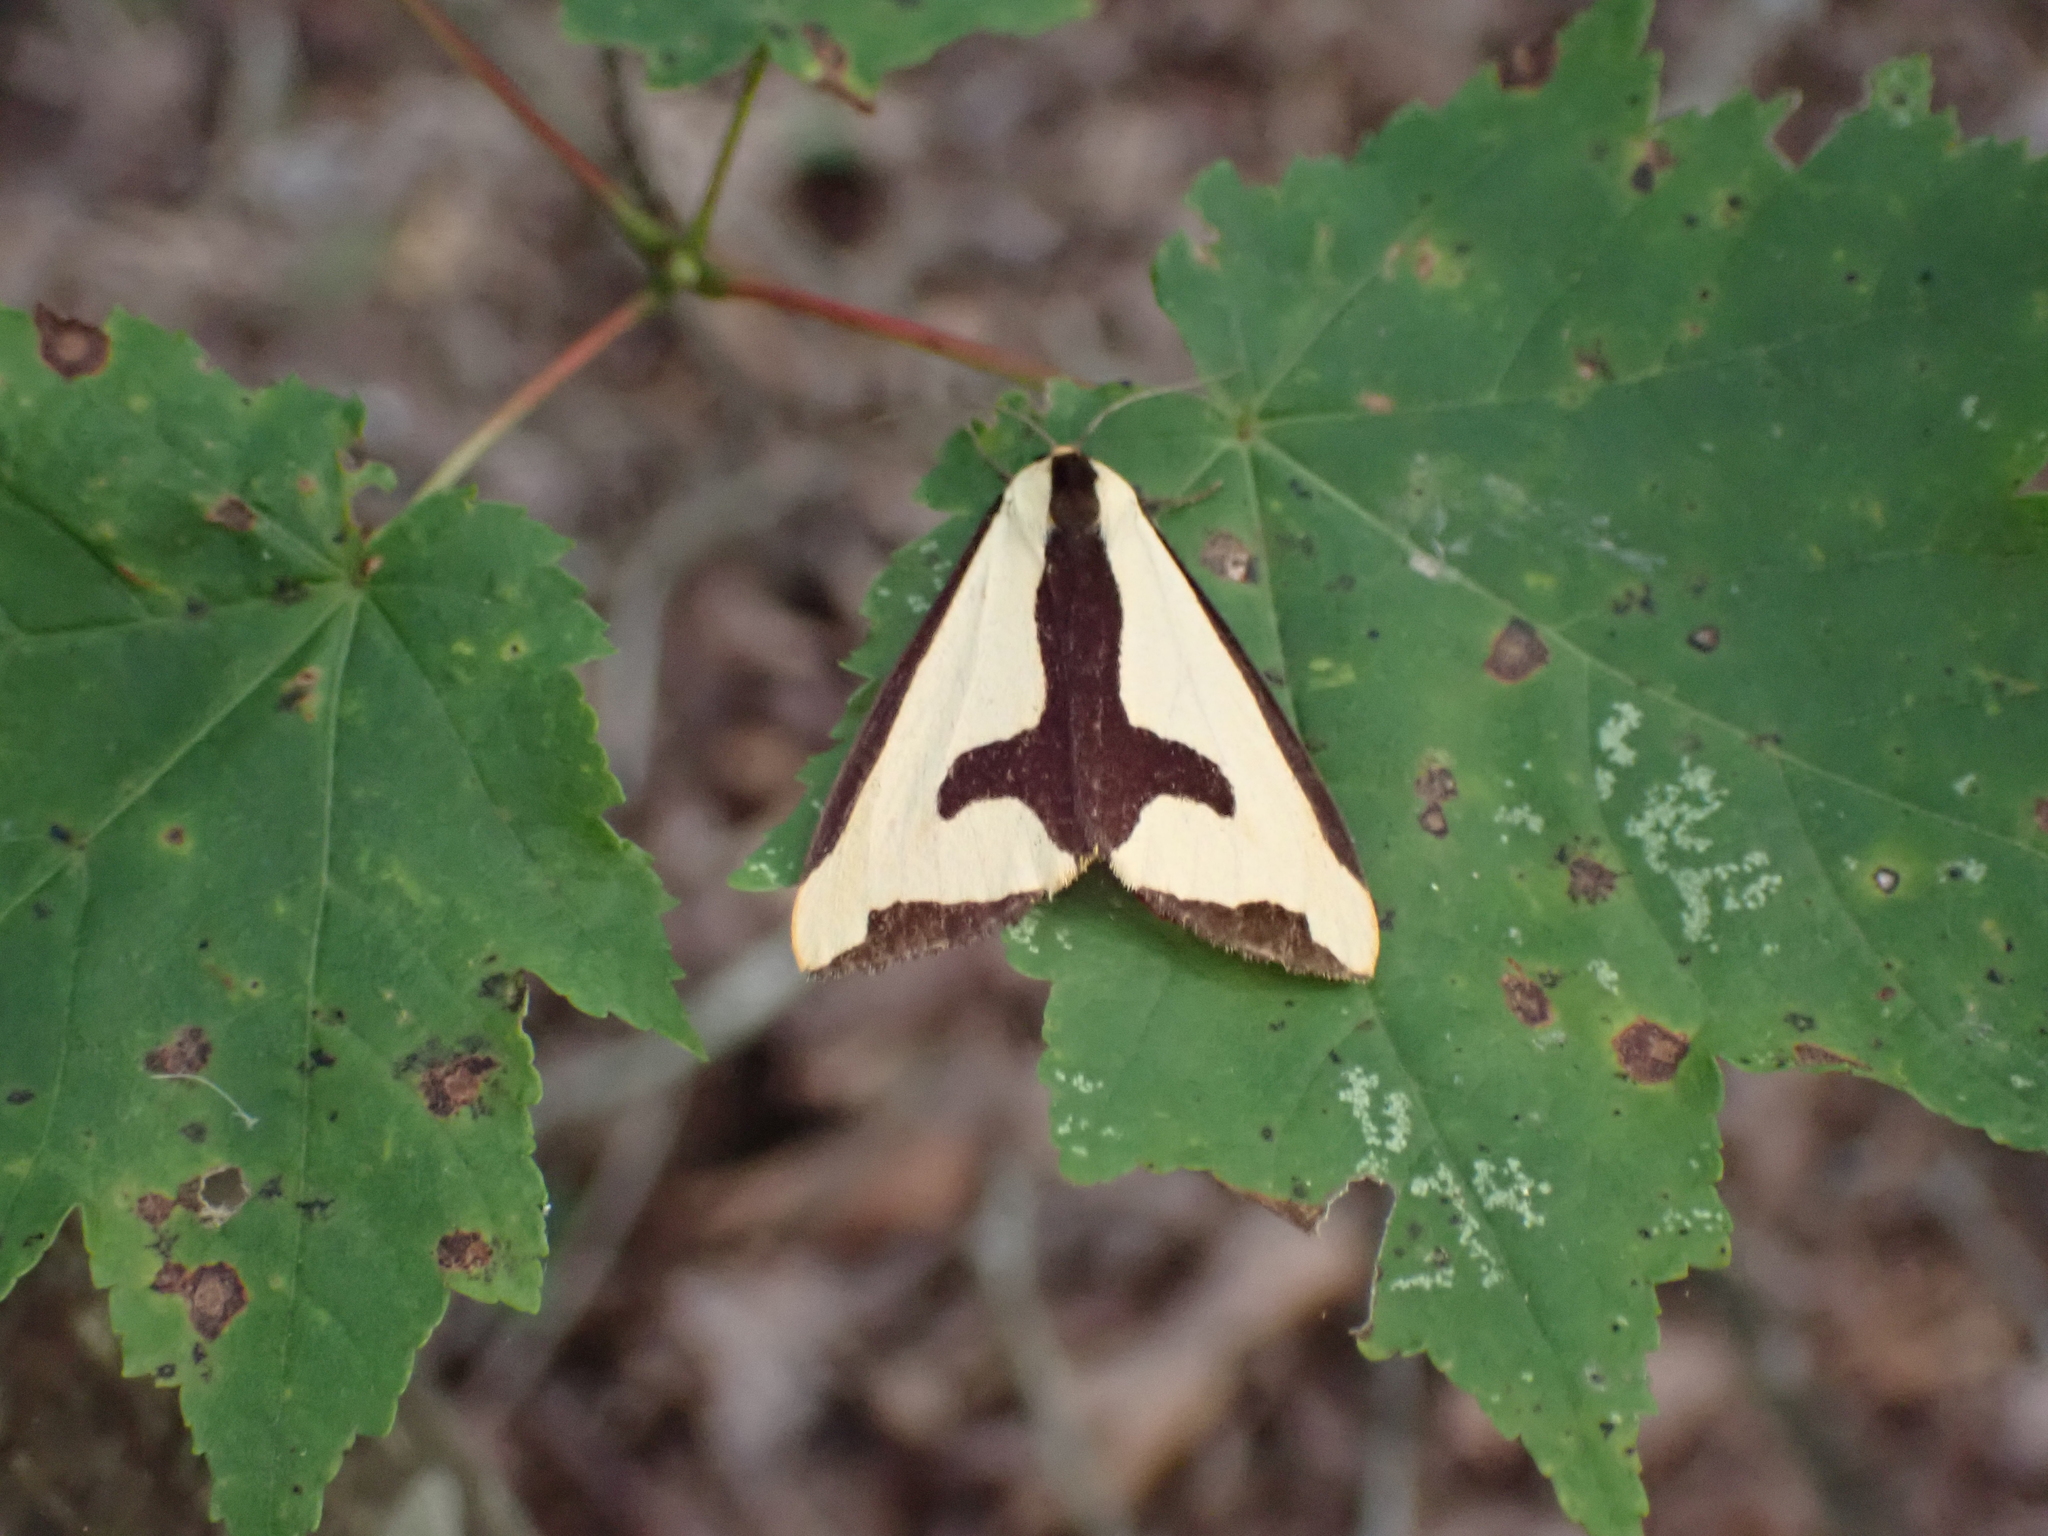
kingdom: Animalia
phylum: Arthropoda
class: Insecta
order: Lepidoptera
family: Erebidae
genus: Haploa
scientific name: Haploa clymene
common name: Clymene moth
